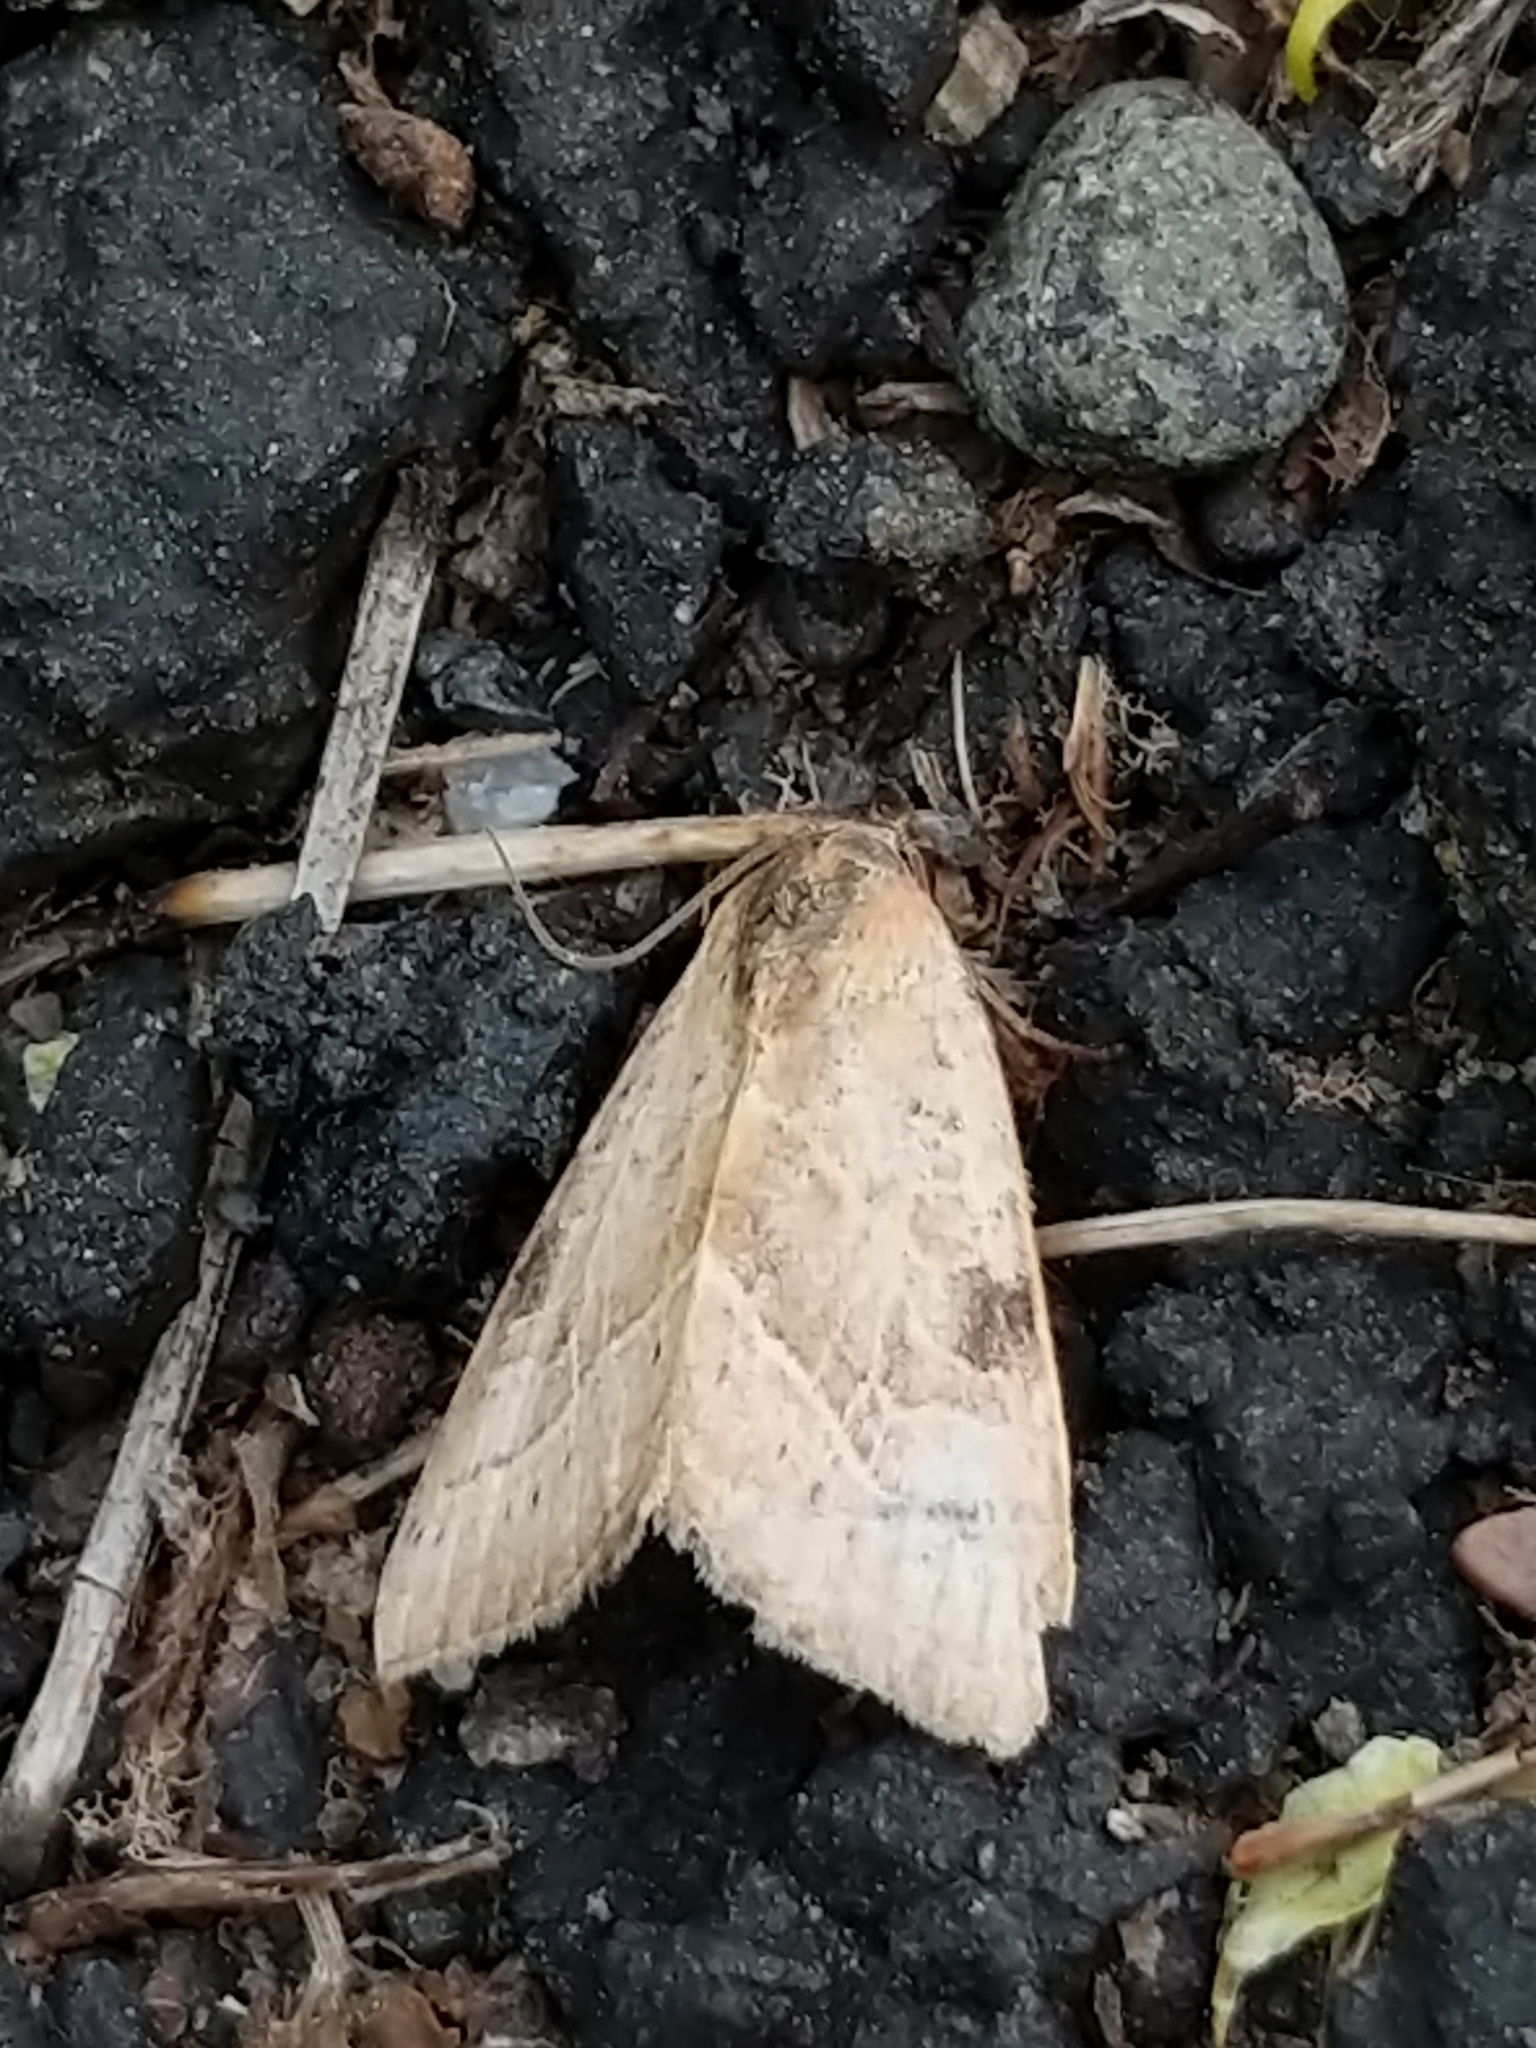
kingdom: Animalia
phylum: Arthropoda
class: Insecta
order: Lepidoptera
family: Noctuidae
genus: Galgula
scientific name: Galgula partita
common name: Wedgeling
